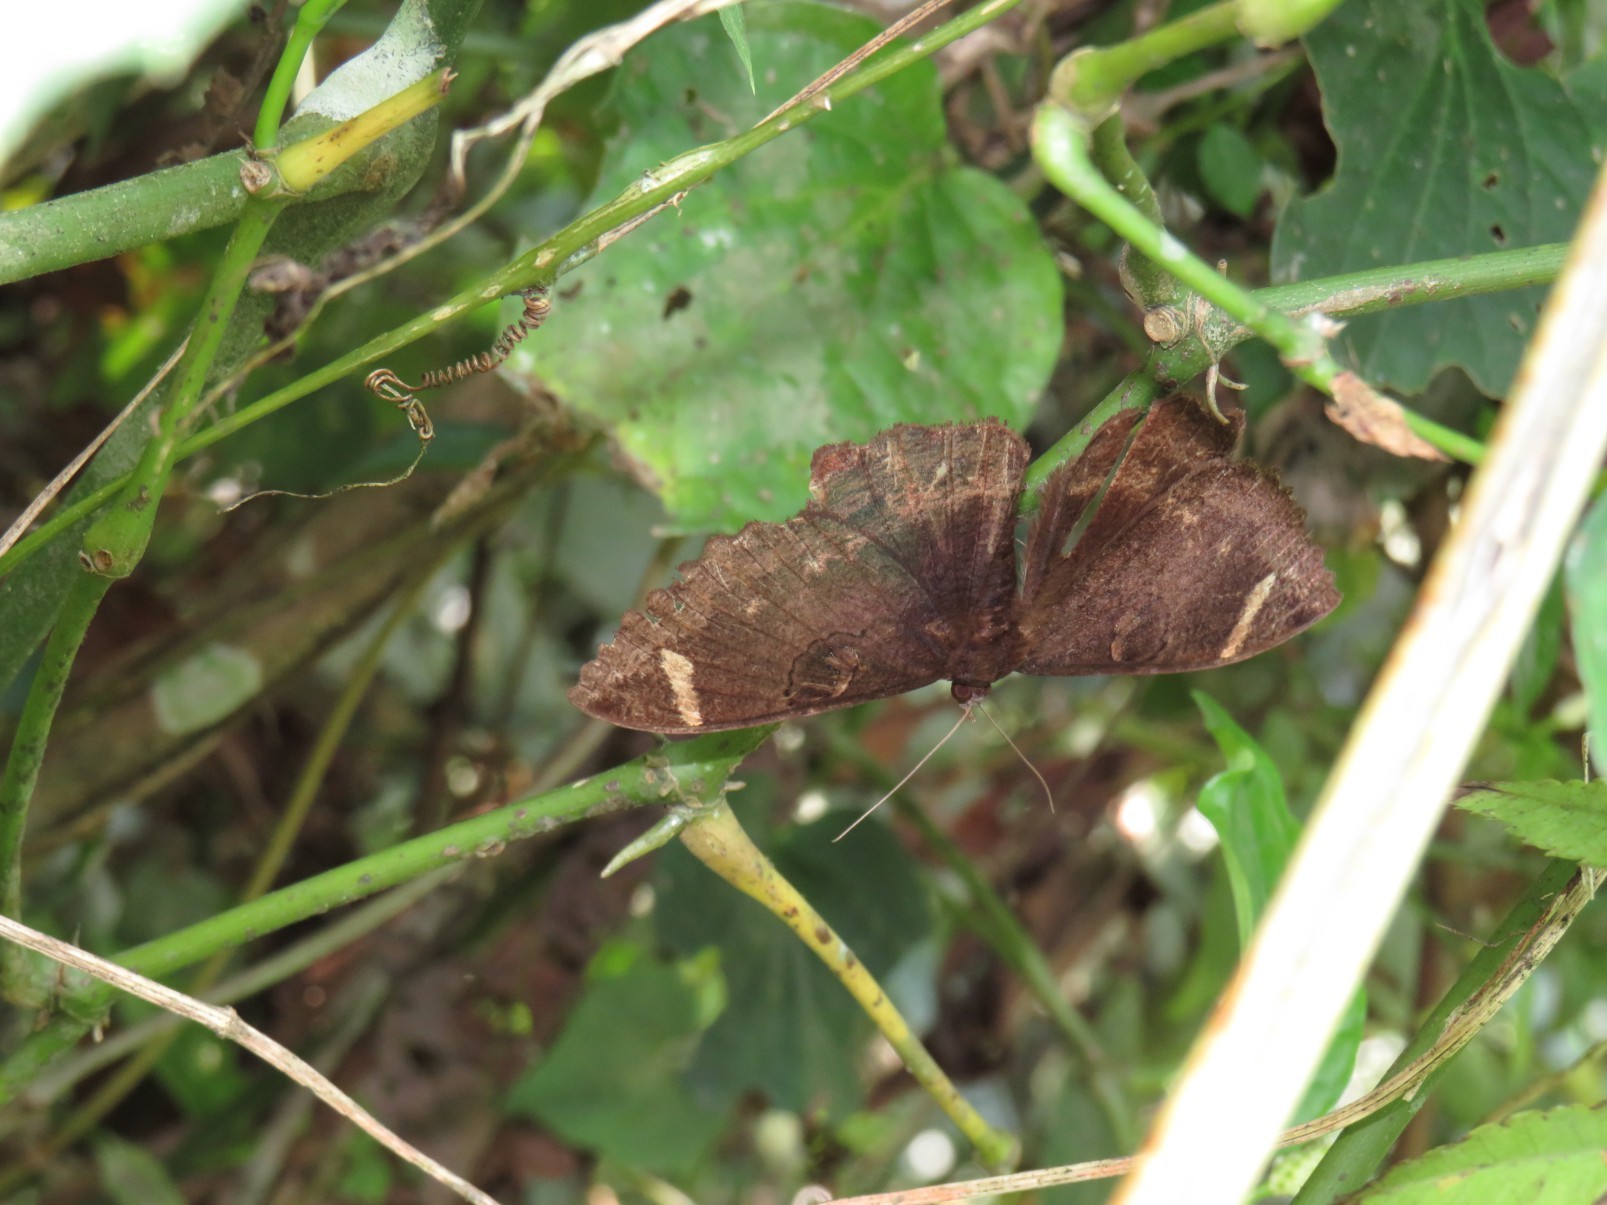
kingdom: Animalia
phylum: Arthropoda
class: Insecta
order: Lepidoptera
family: Erebidae
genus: Erebus
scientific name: Erebus hieroglyphica
